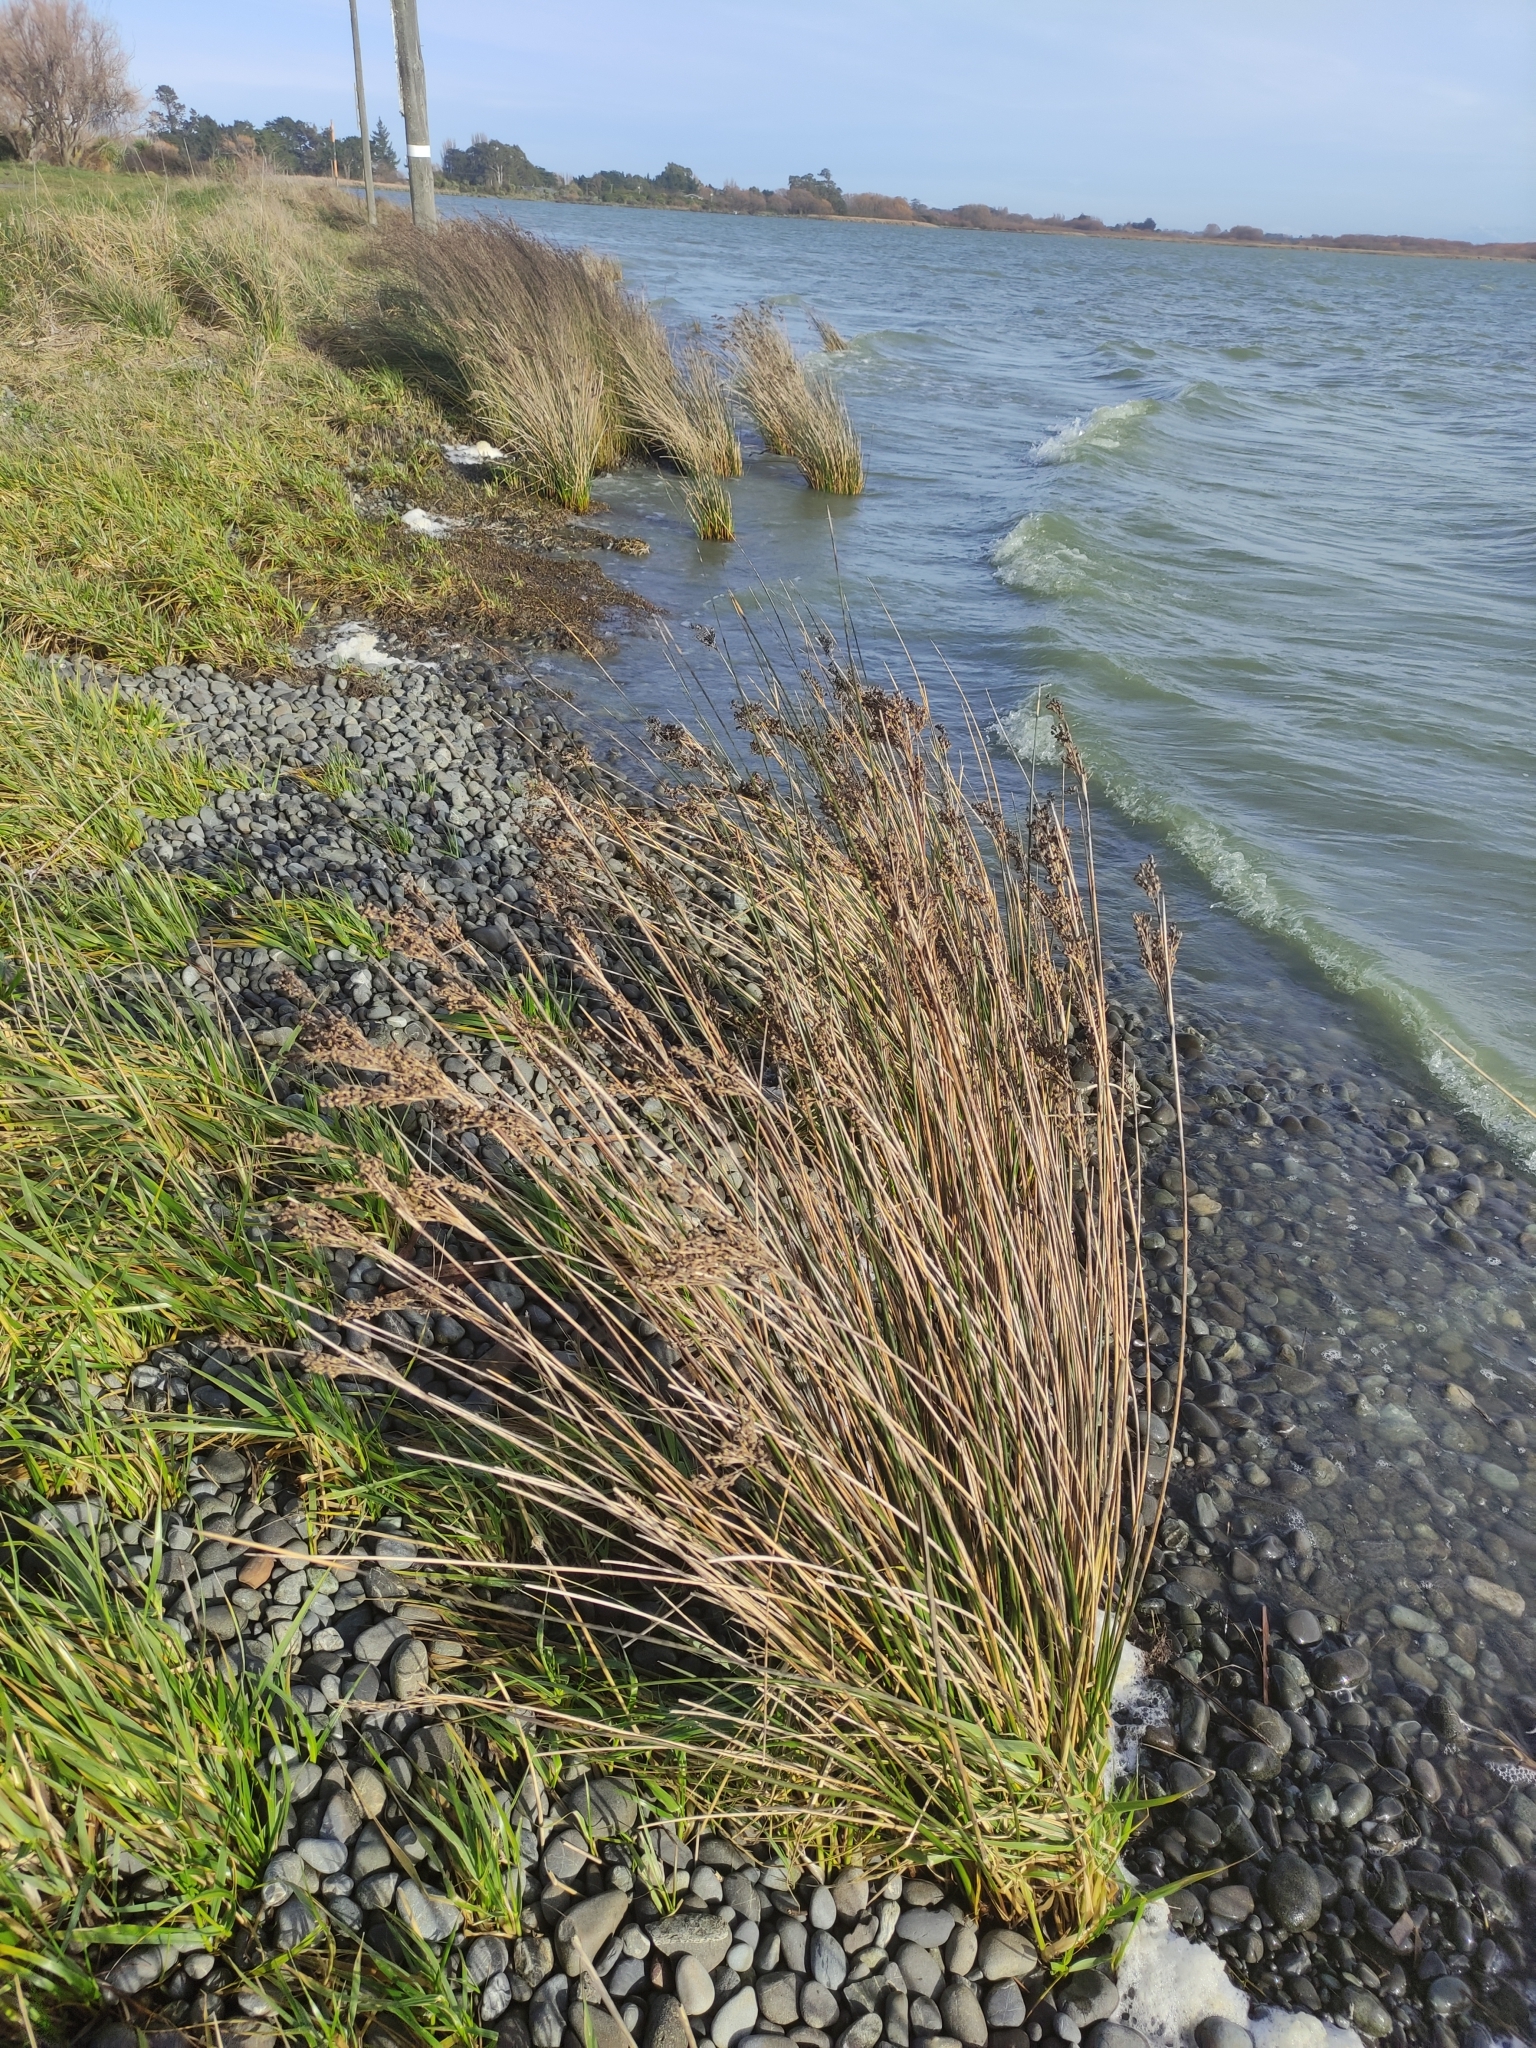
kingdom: Plantae
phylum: Tracheophyta
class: Liliopsida
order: Poales
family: Juncaceae
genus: Juncus
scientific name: Juncus kraussii
